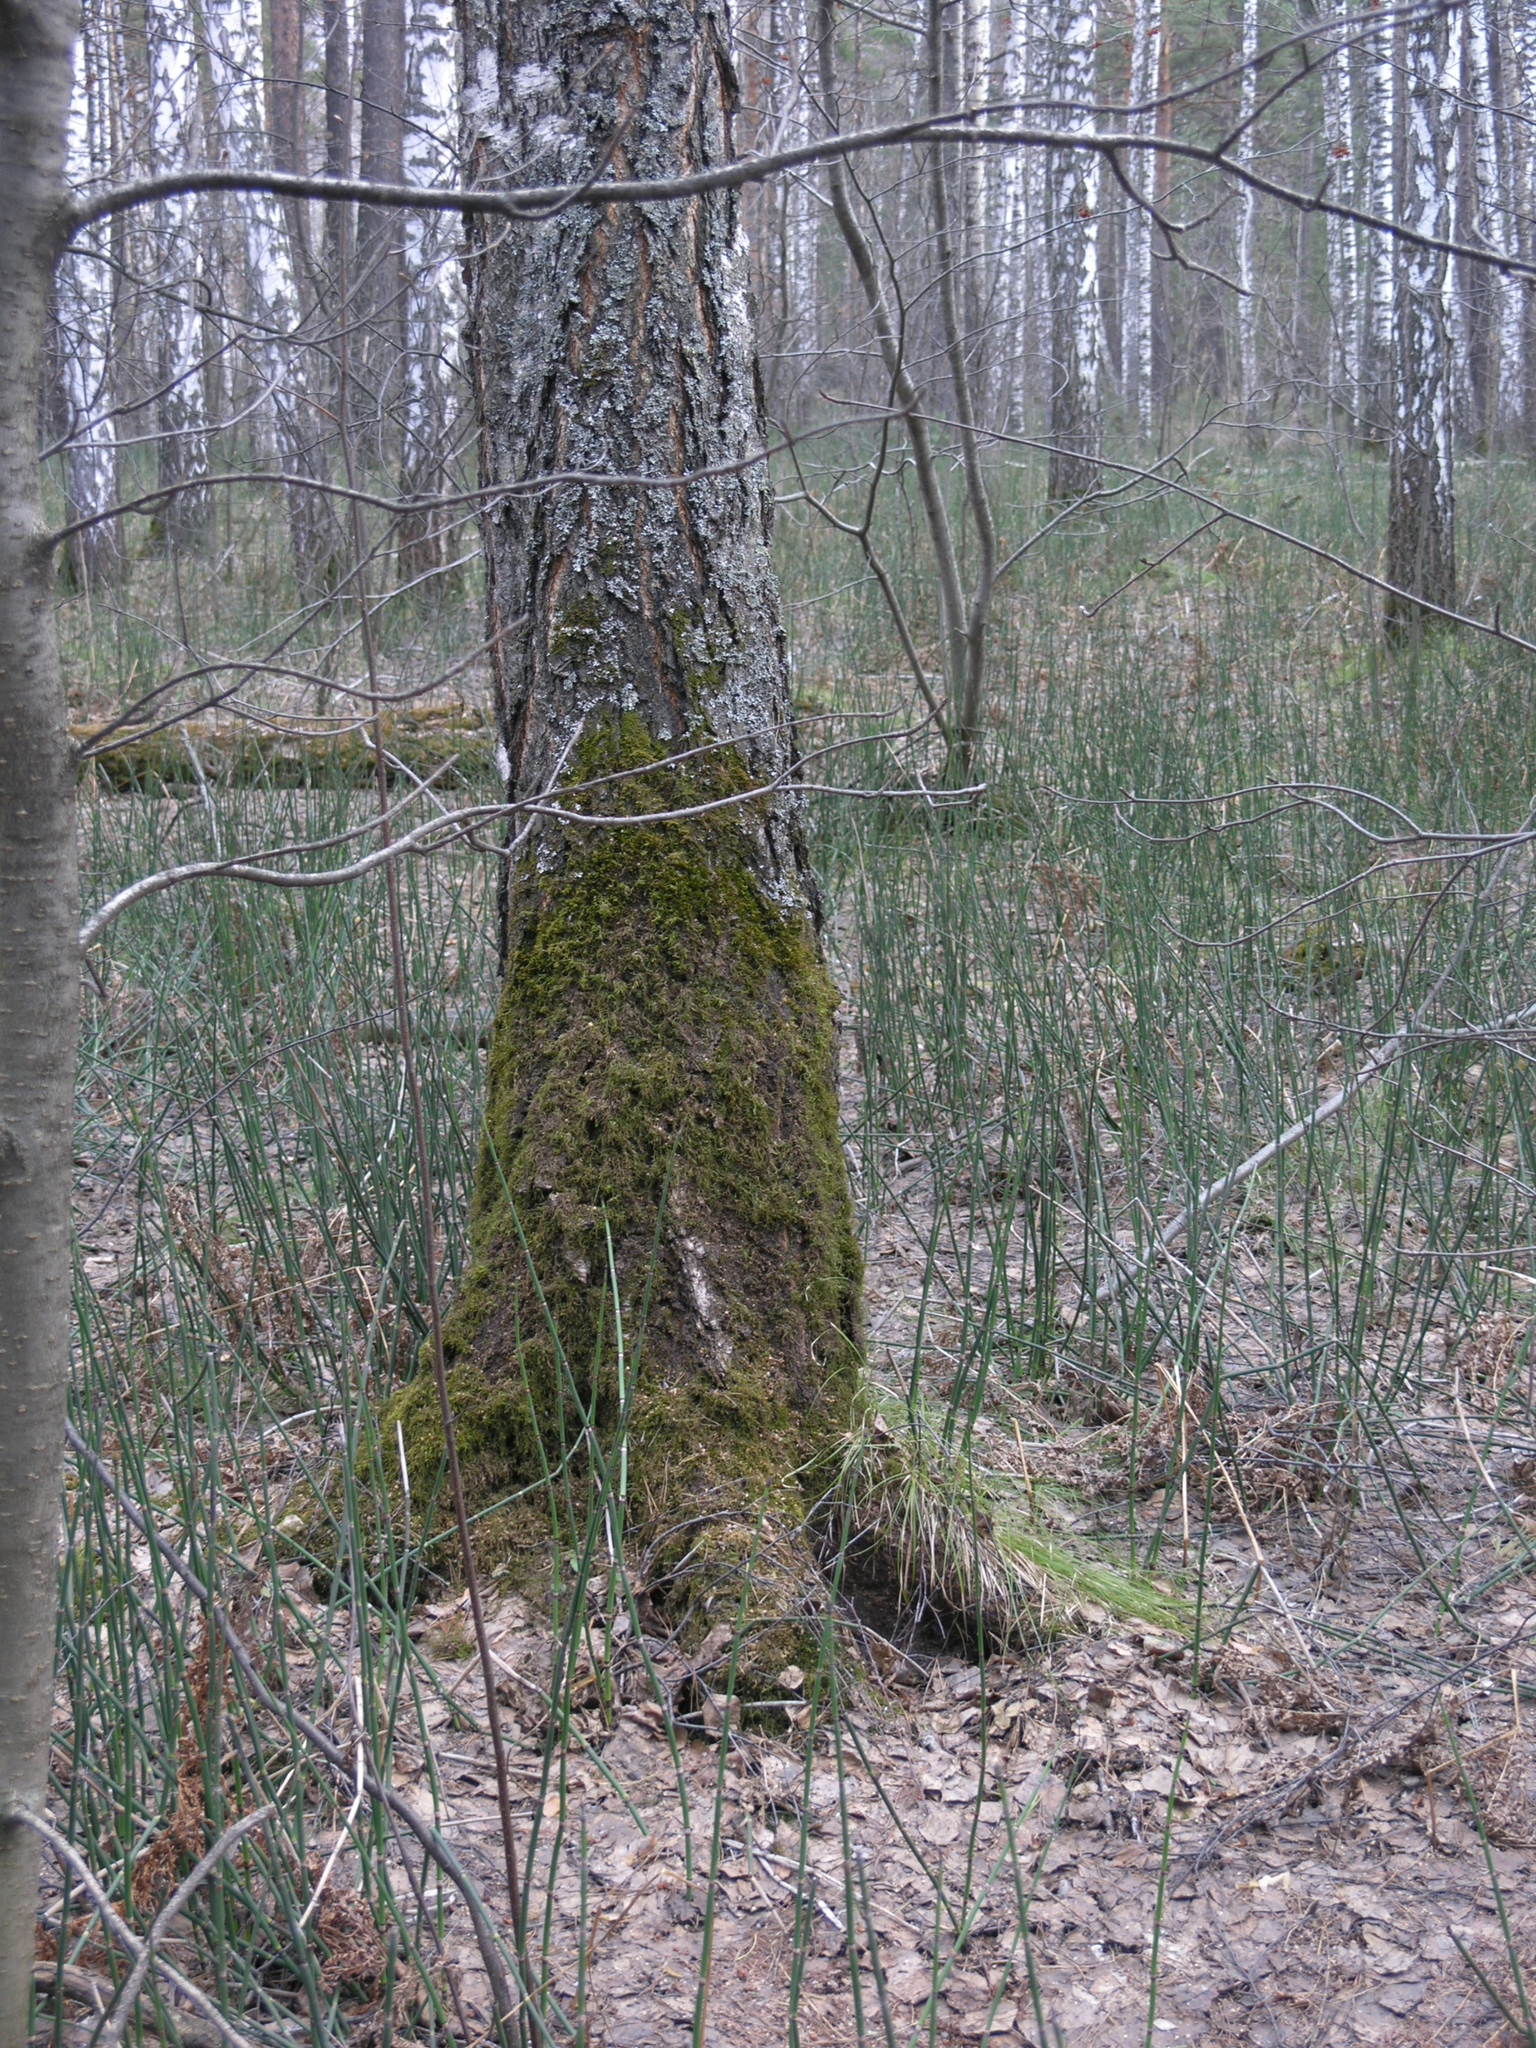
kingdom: Plantae
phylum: Tracheophyta
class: Polypodiopsida
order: Equisetales
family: Equisetaceae
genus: Equisetum
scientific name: Equisetum hyemale
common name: Rough horsetail
